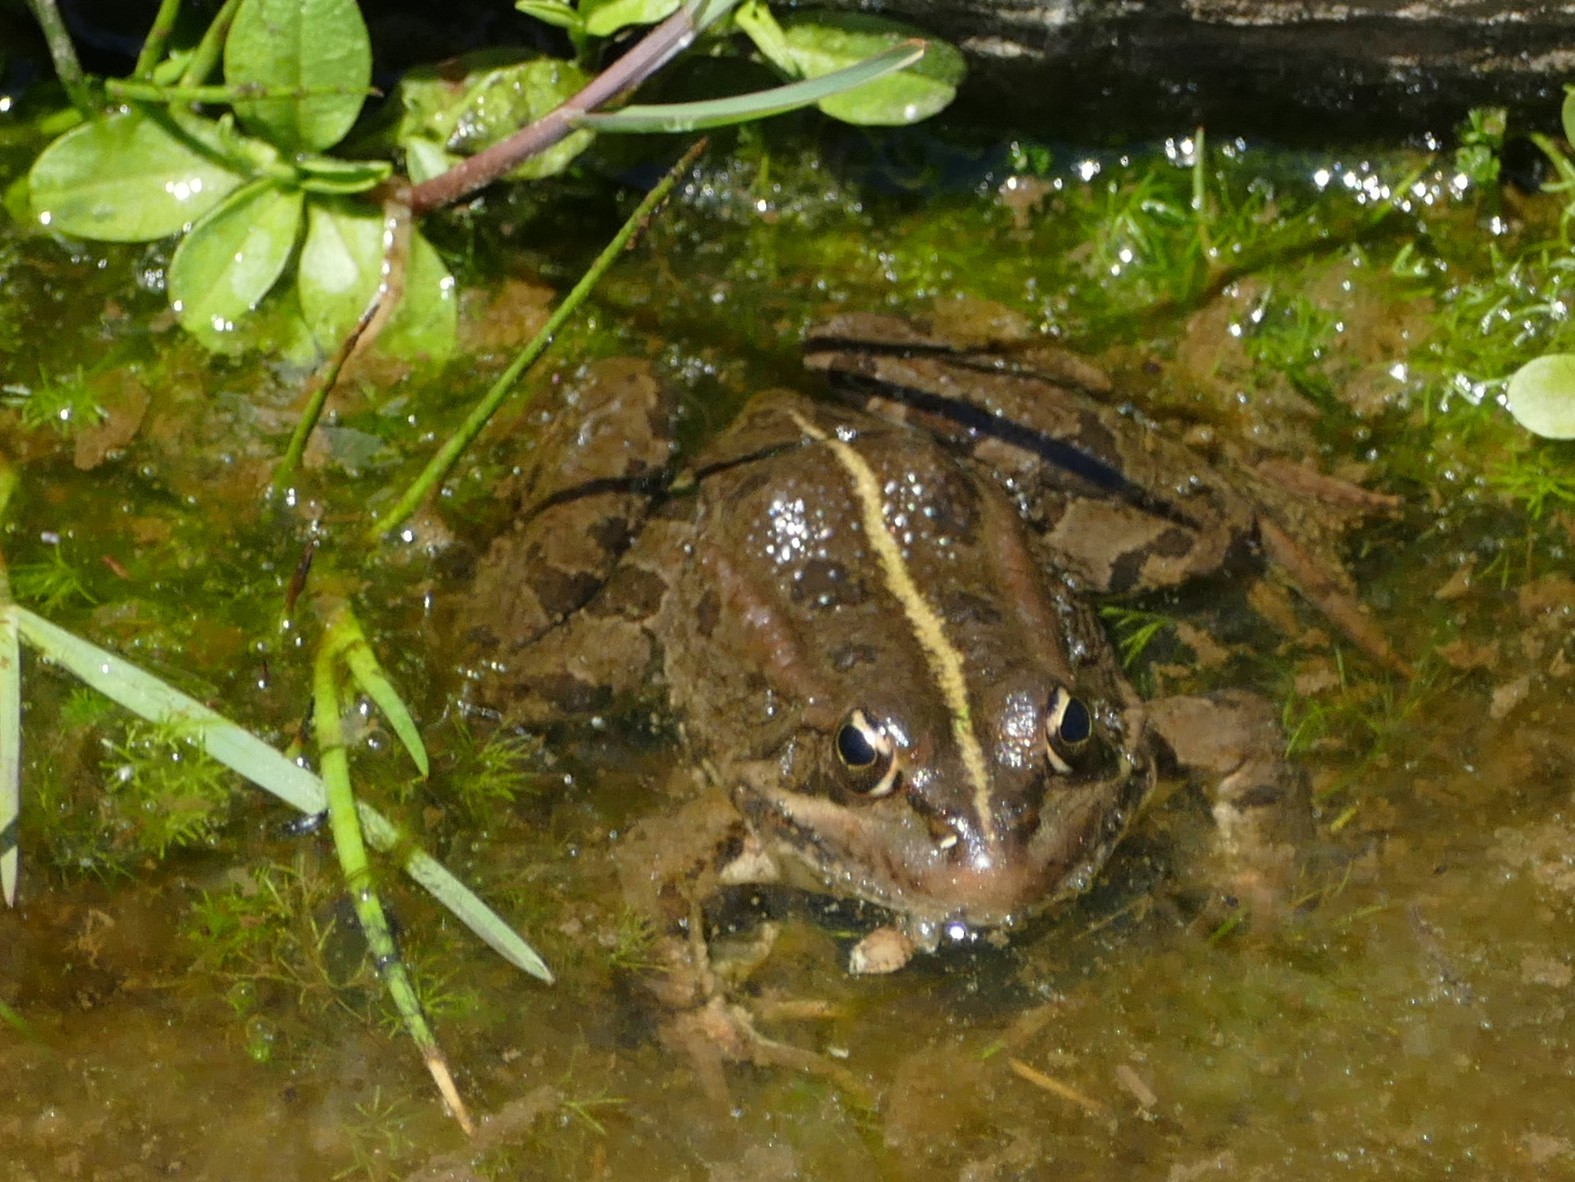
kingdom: Animalia
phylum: Chordata
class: Amphibia
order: Anura
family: Ranidae
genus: Pelophylax
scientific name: Pelophylax perezi
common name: Perez's frog
